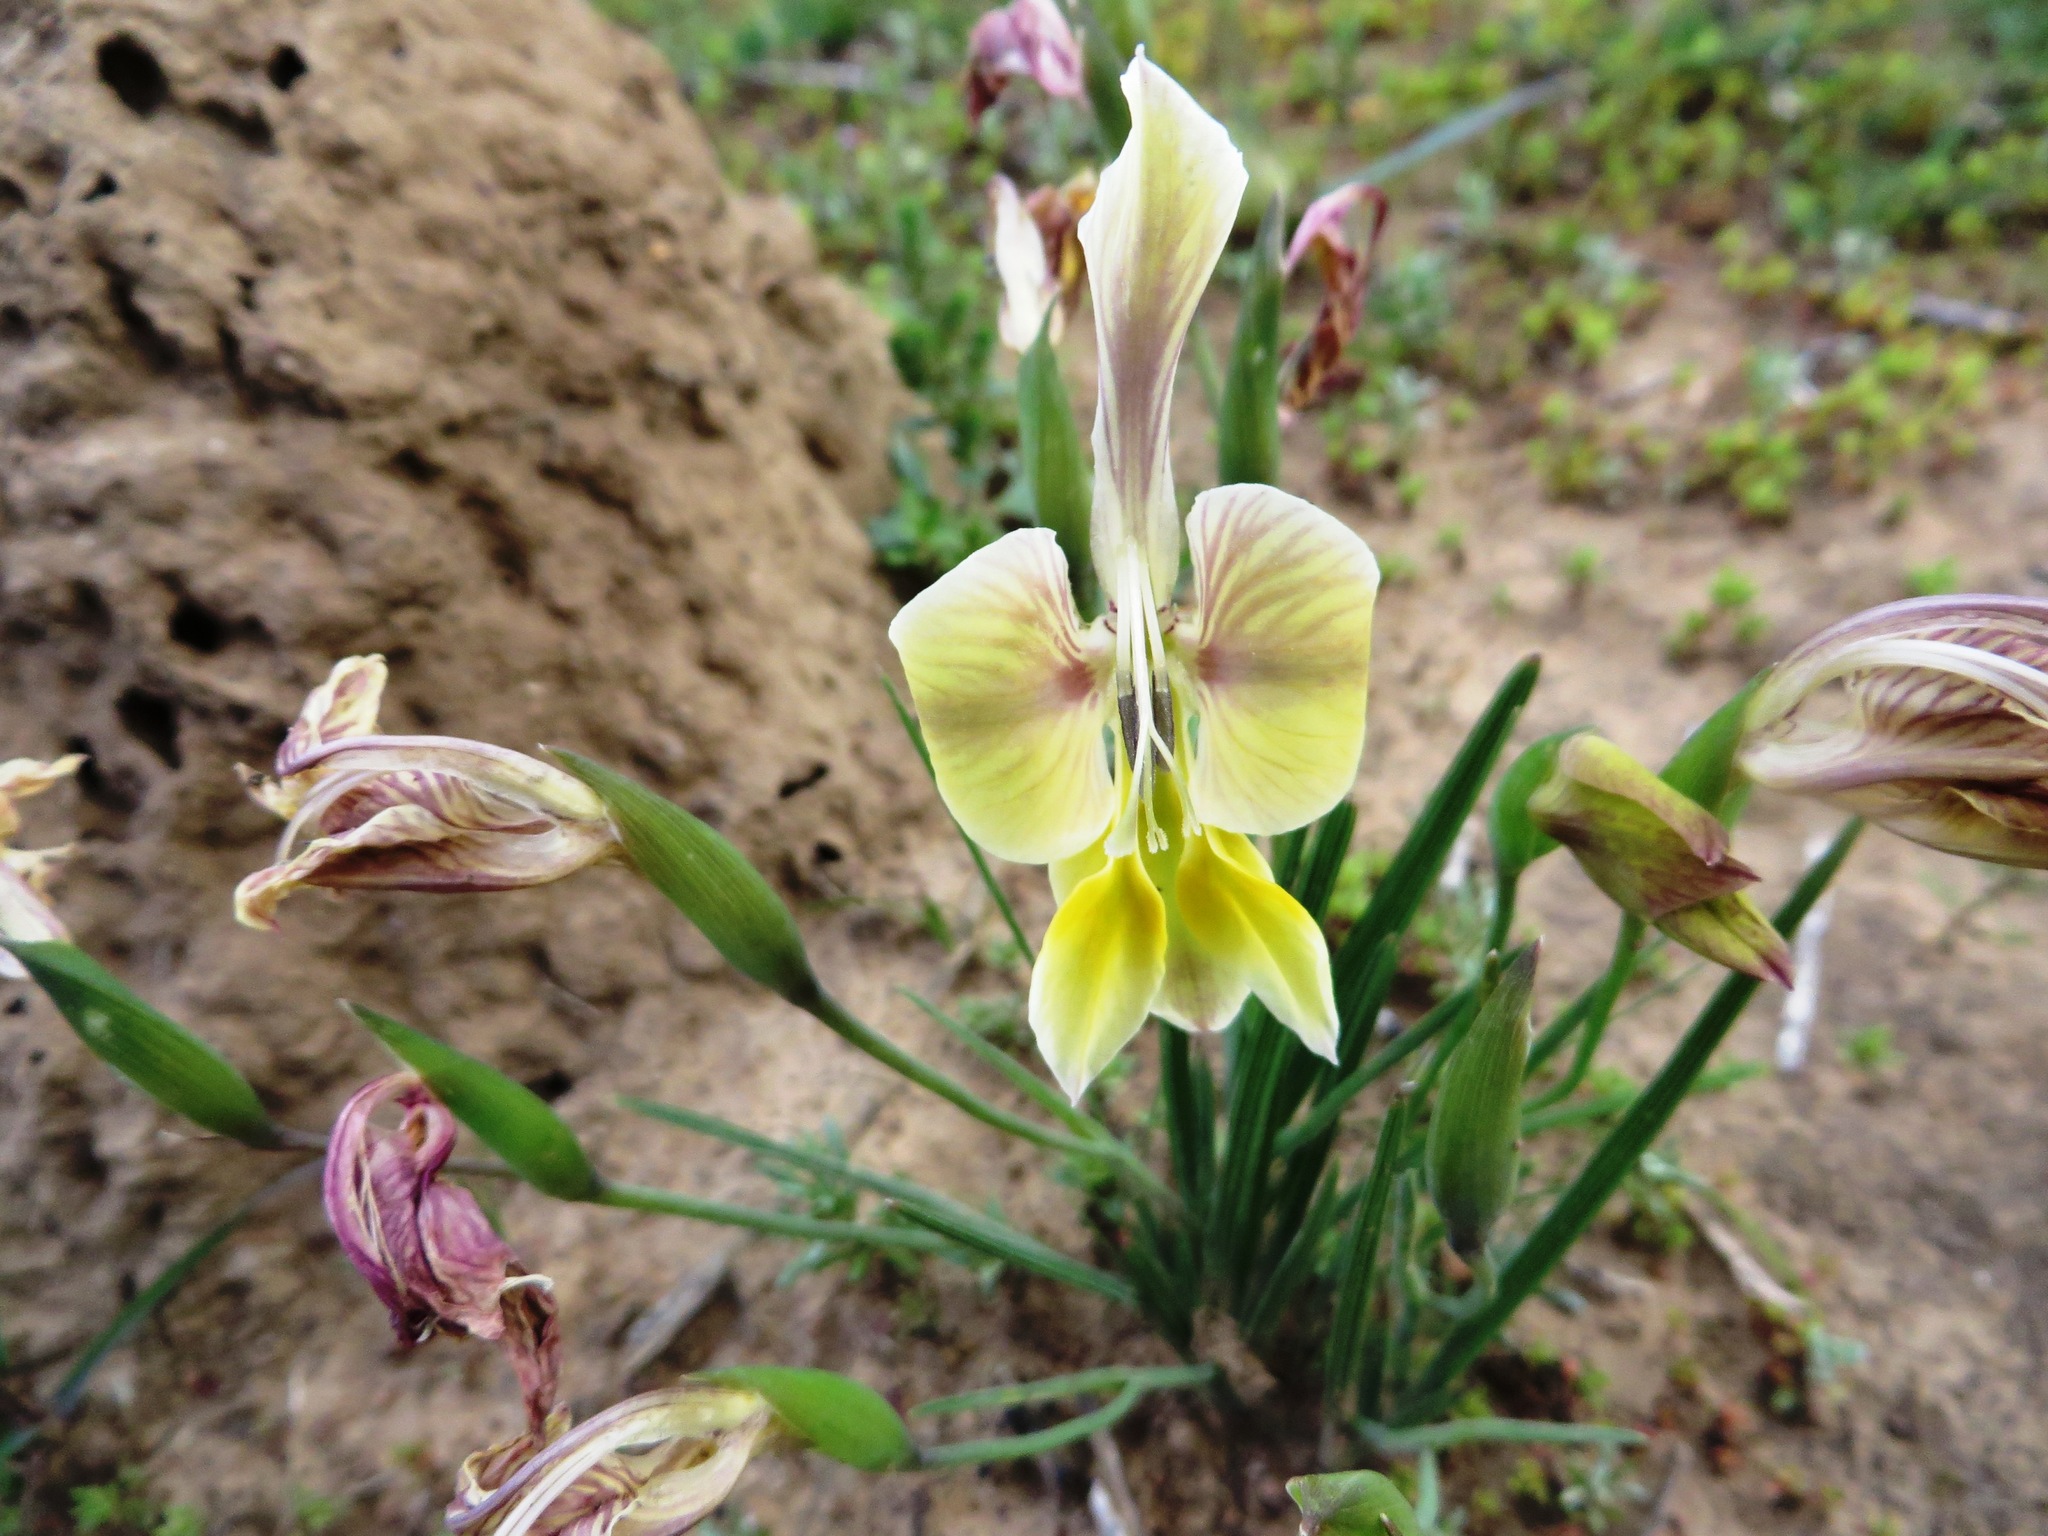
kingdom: Plantae
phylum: Tracheophyta
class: Liliopsida
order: Asparagales
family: Iridaceae
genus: Gladiolus
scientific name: Gladiolus virescens
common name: Yellow kalkoentjie
